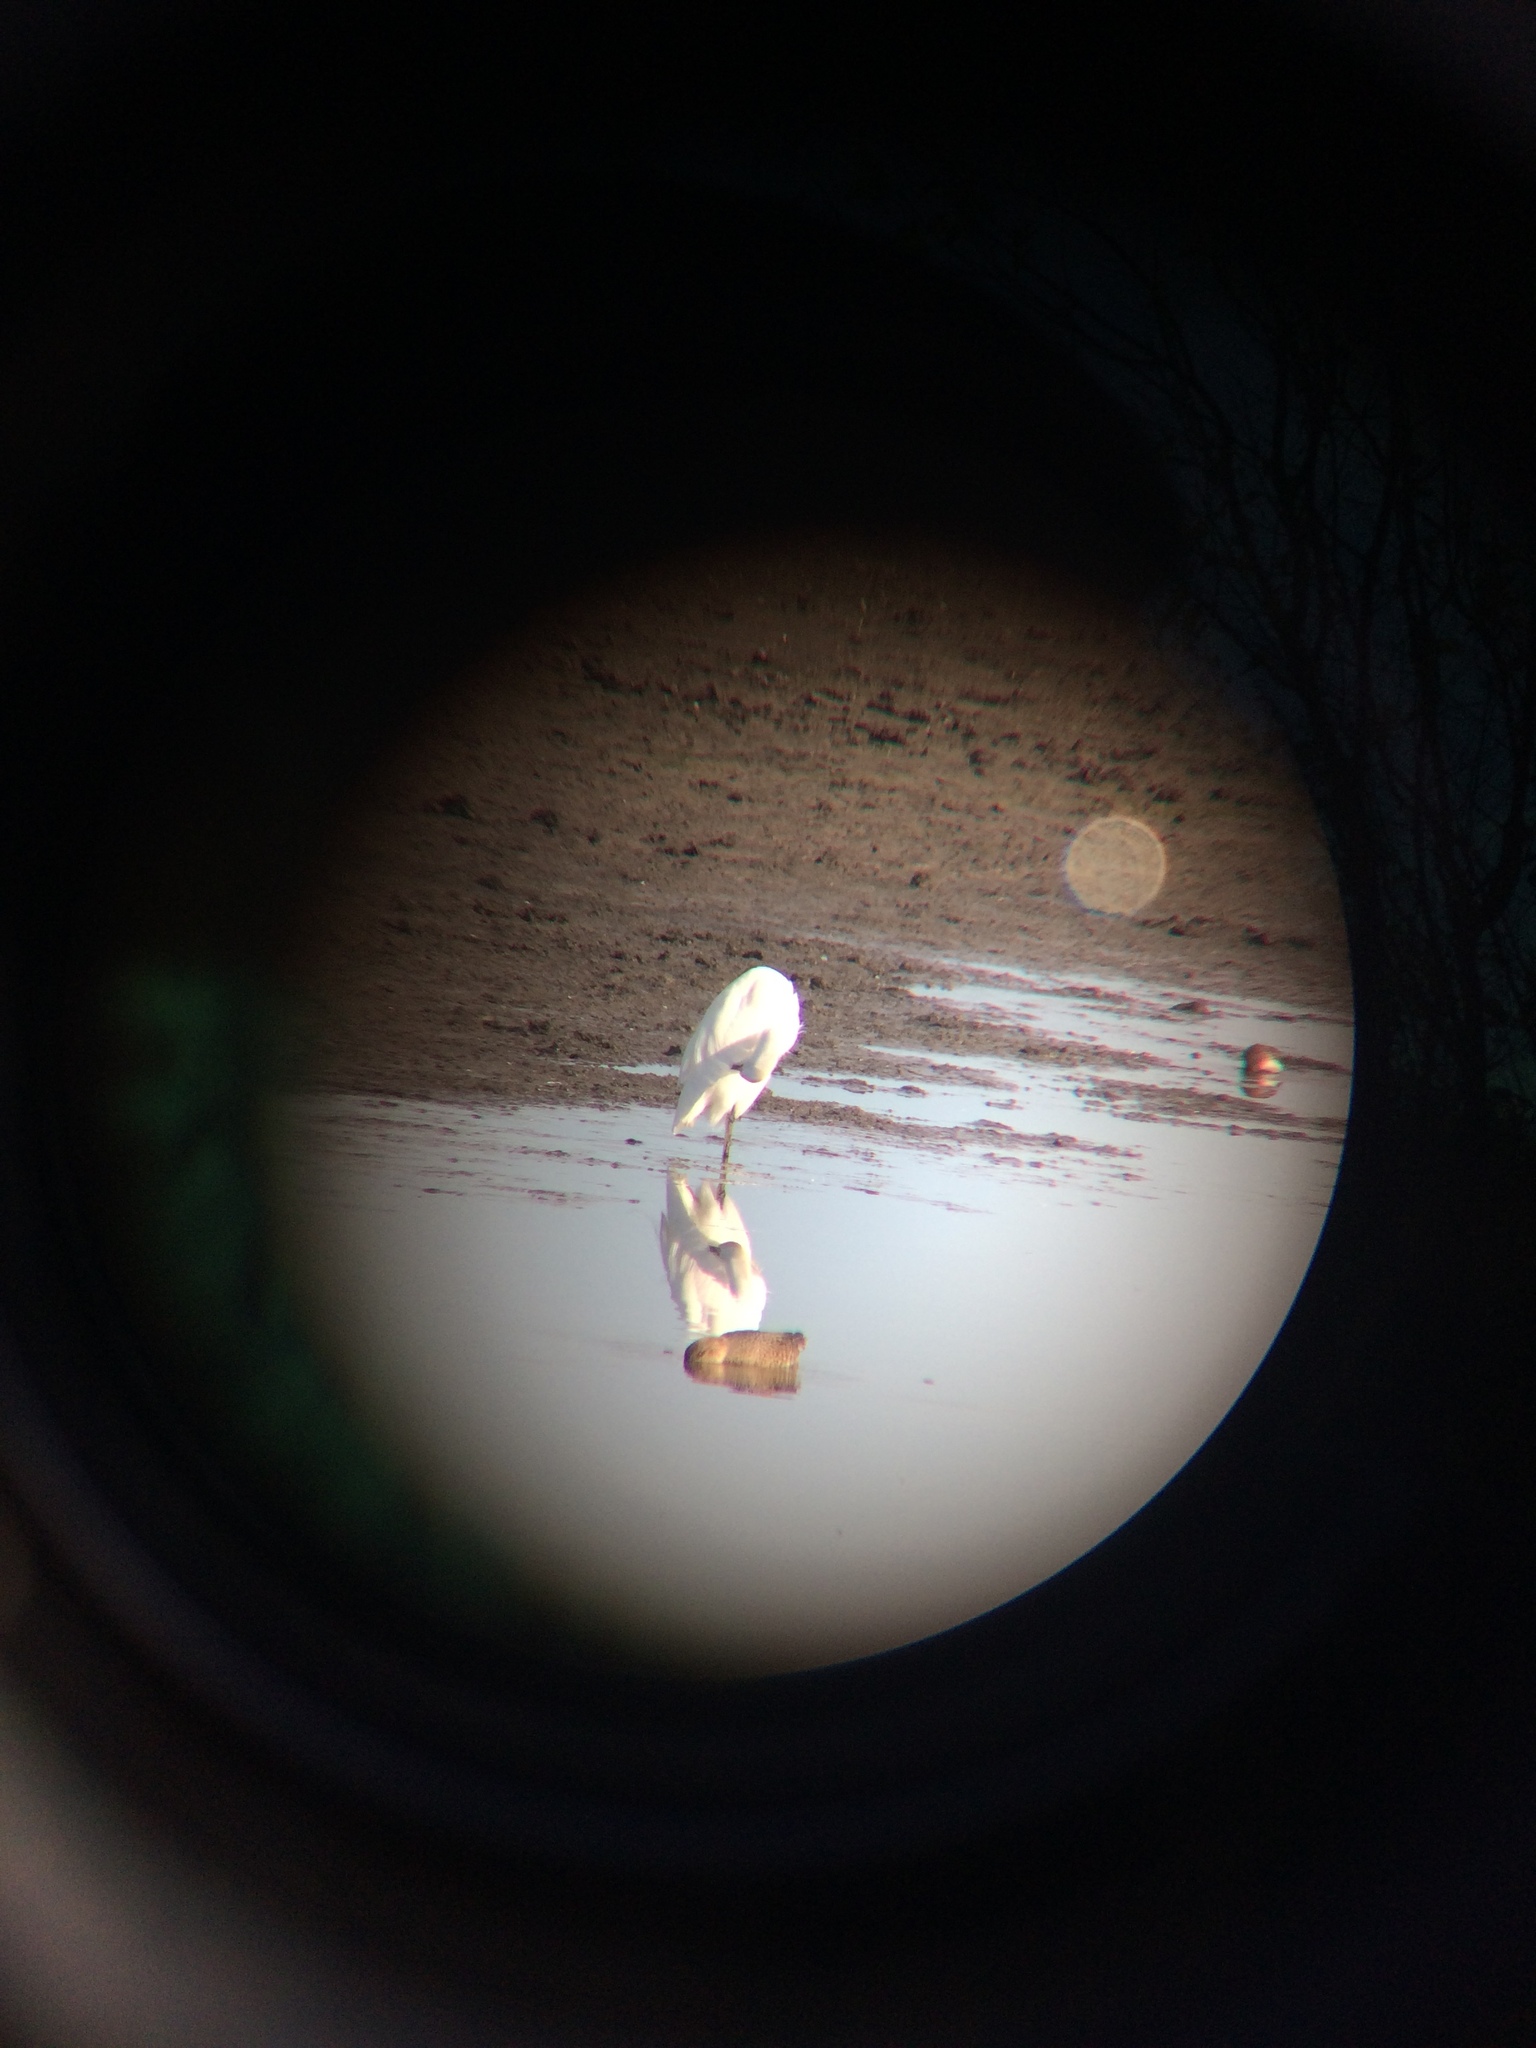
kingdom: Animalia
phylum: Chordata
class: Aves
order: Pelecaniformes
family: Ardeidae
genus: Egretta
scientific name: Egretta thula
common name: Snowy egret
